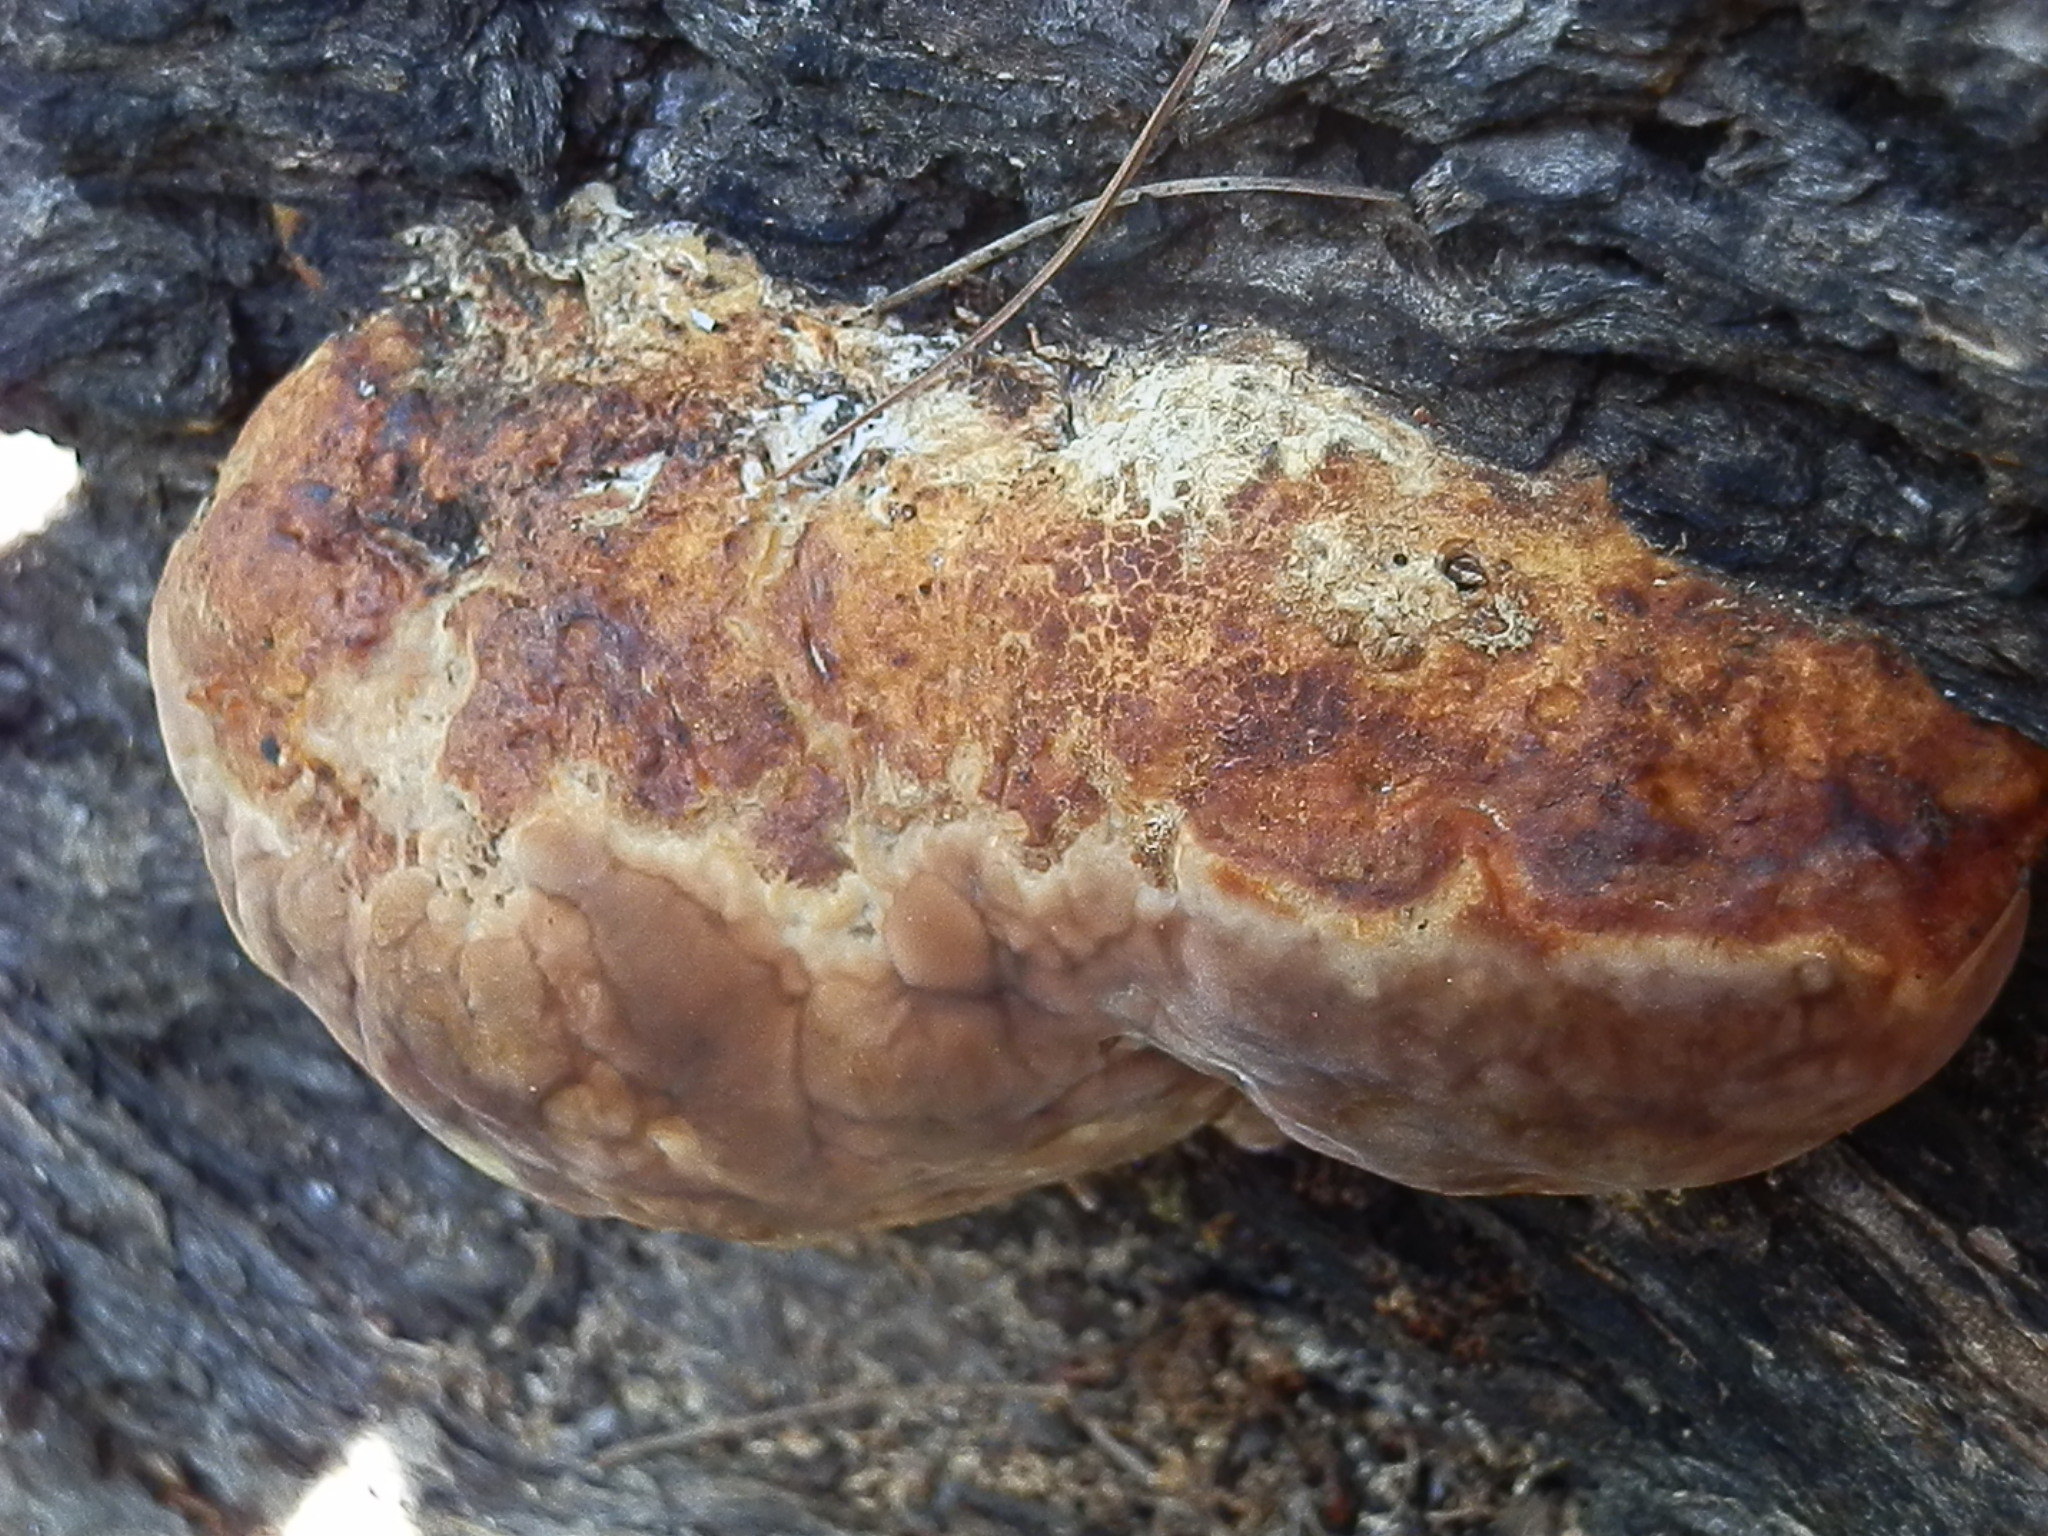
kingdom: Fungi
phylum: Basidiomycota
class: Agaricomycetes
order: Polyporales
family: Fomitopsidaceae
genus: Fomitopsis
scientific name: Fomitopsis schrenkii
